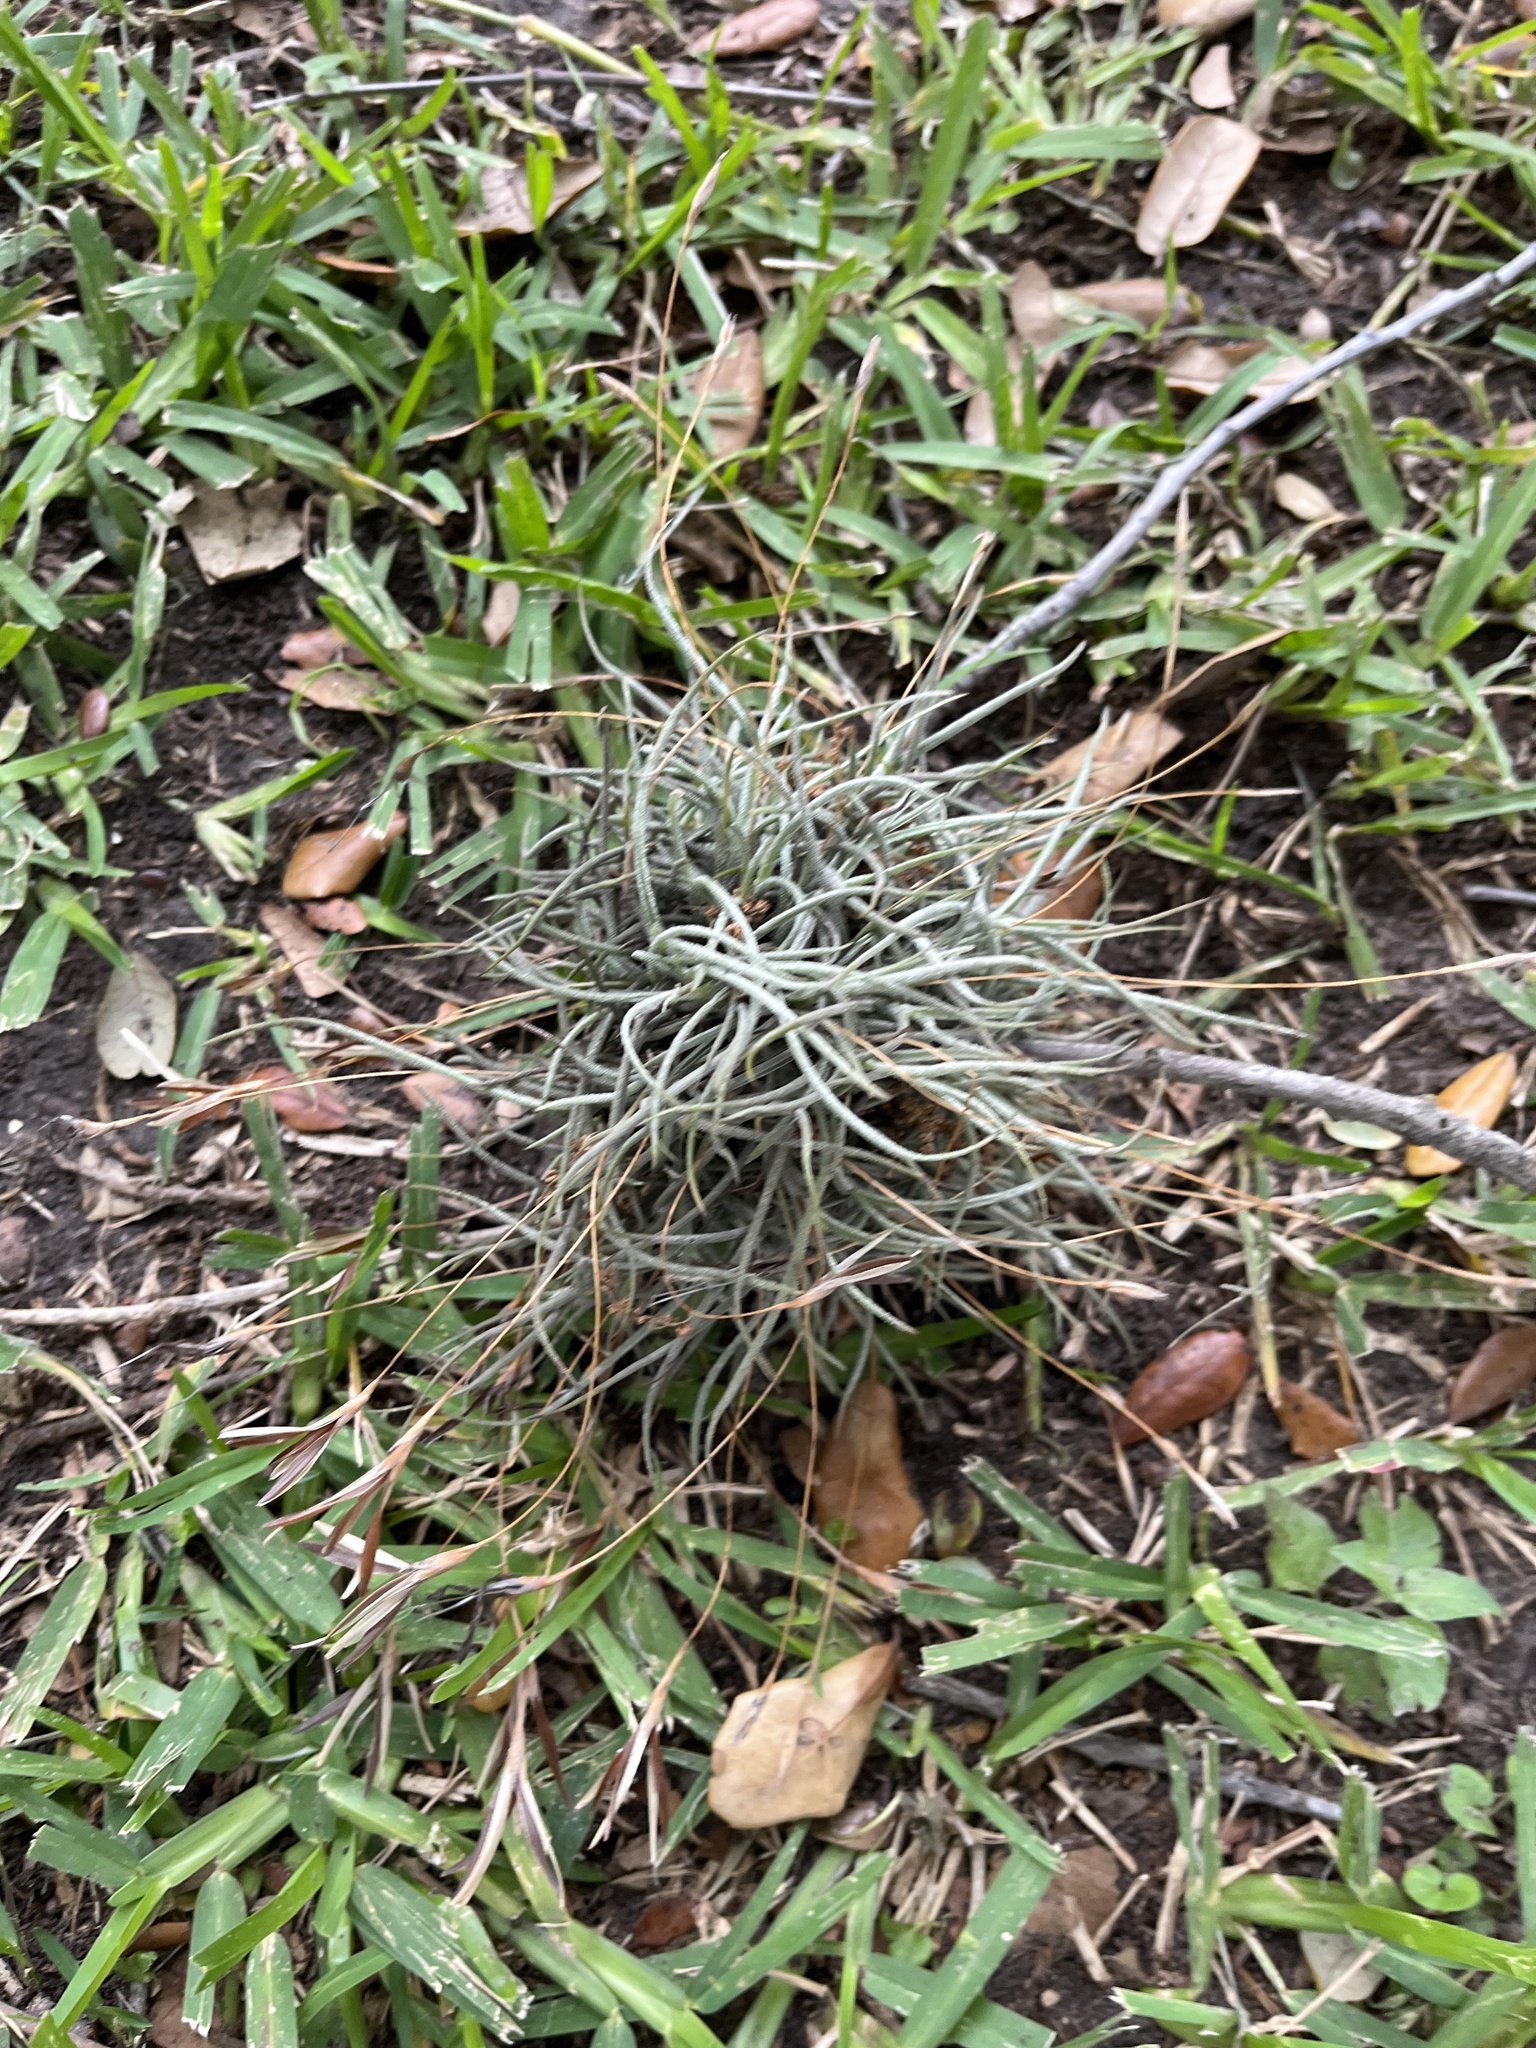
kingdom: Plantae
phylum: Tracheophyta
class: Liliopsida
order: Poales
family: Bromeliaceae
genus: Tillandsia
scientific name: Tillandsia recurvata
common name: Small ballmoss
